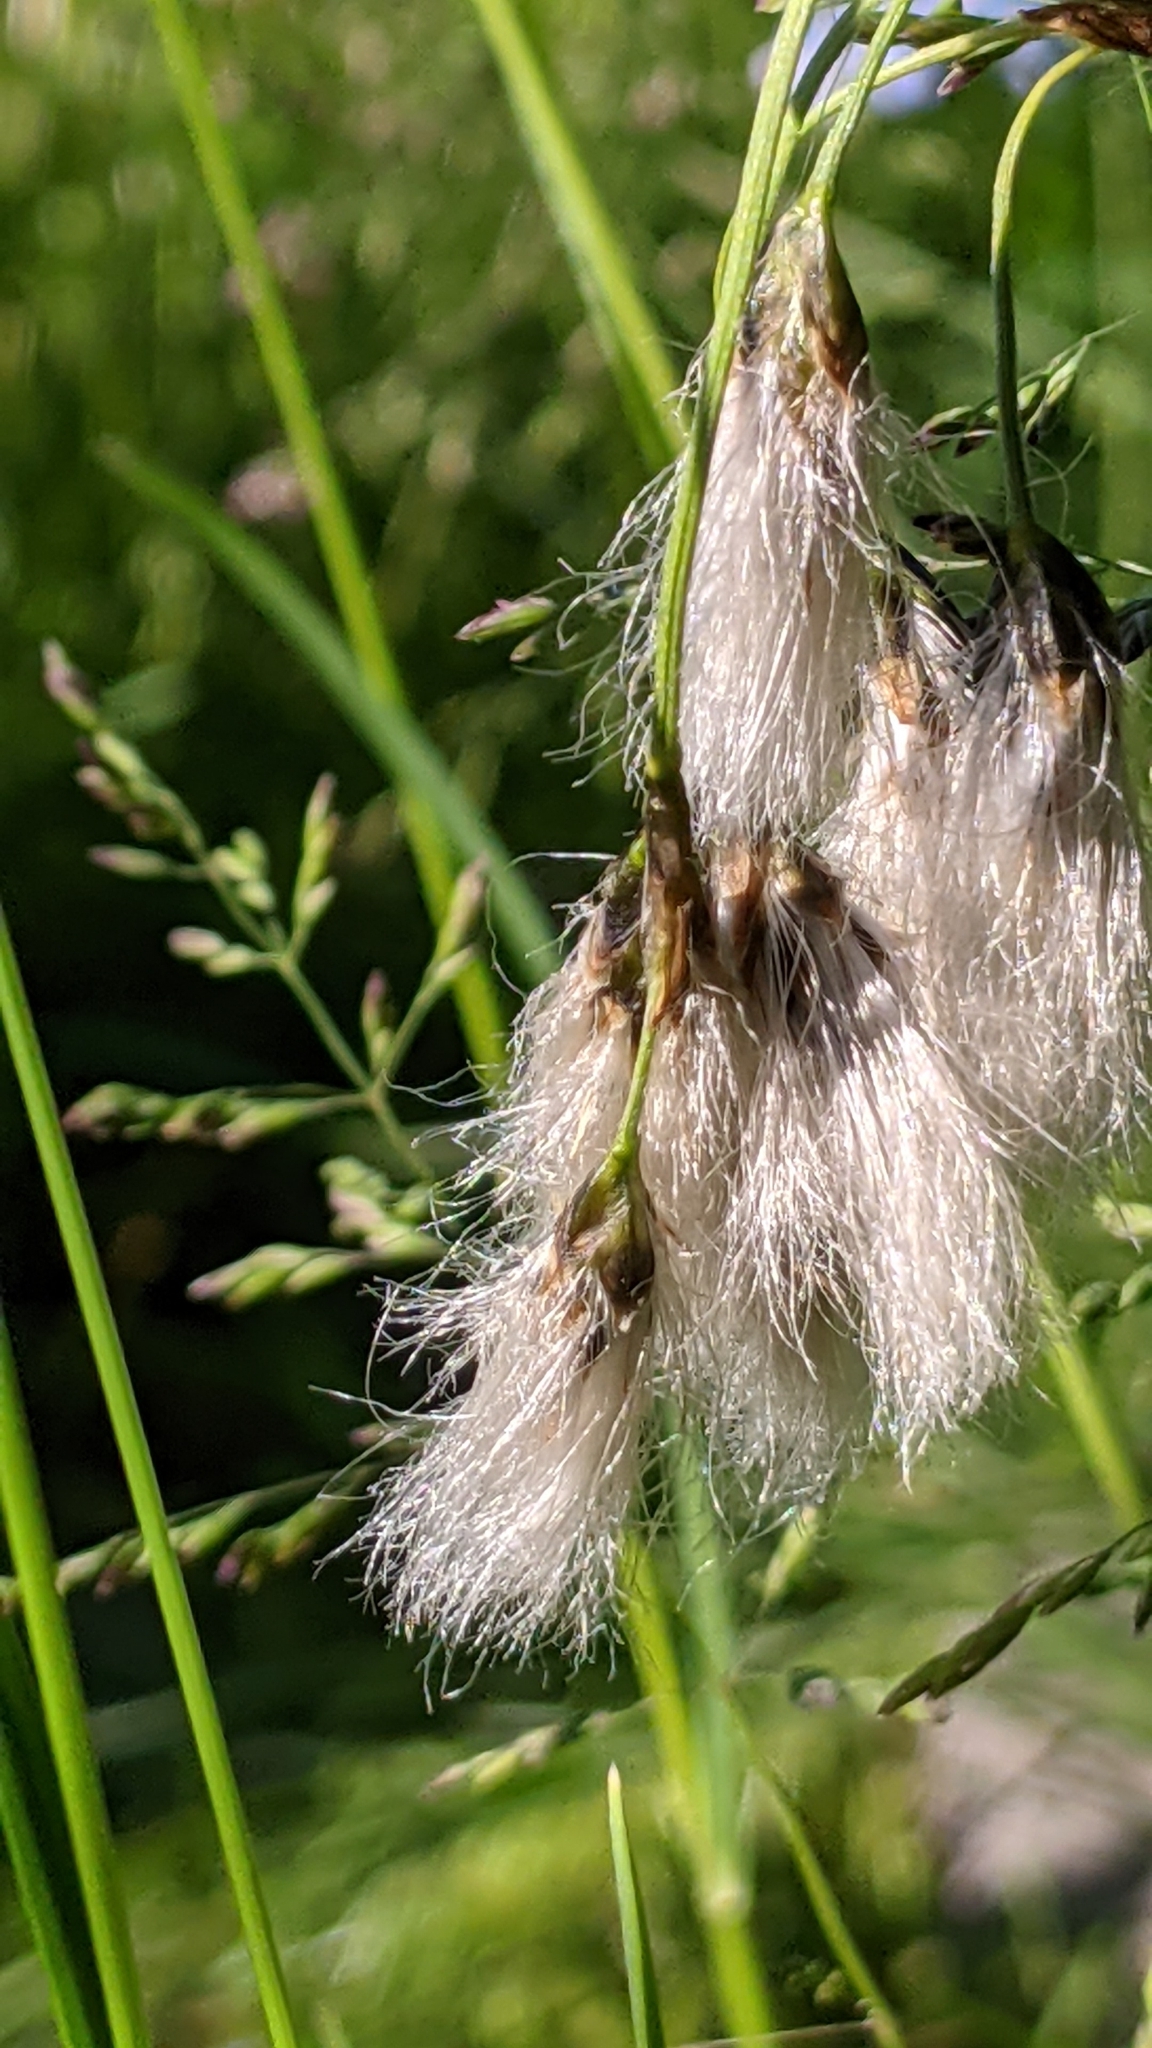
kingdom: Plantae
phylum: Tracheophyta
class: Liliopsida
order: Poales
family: Cyperaceae
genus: Eriophorum
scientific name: Eriophorum angustifolium
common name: Common cottongrass
